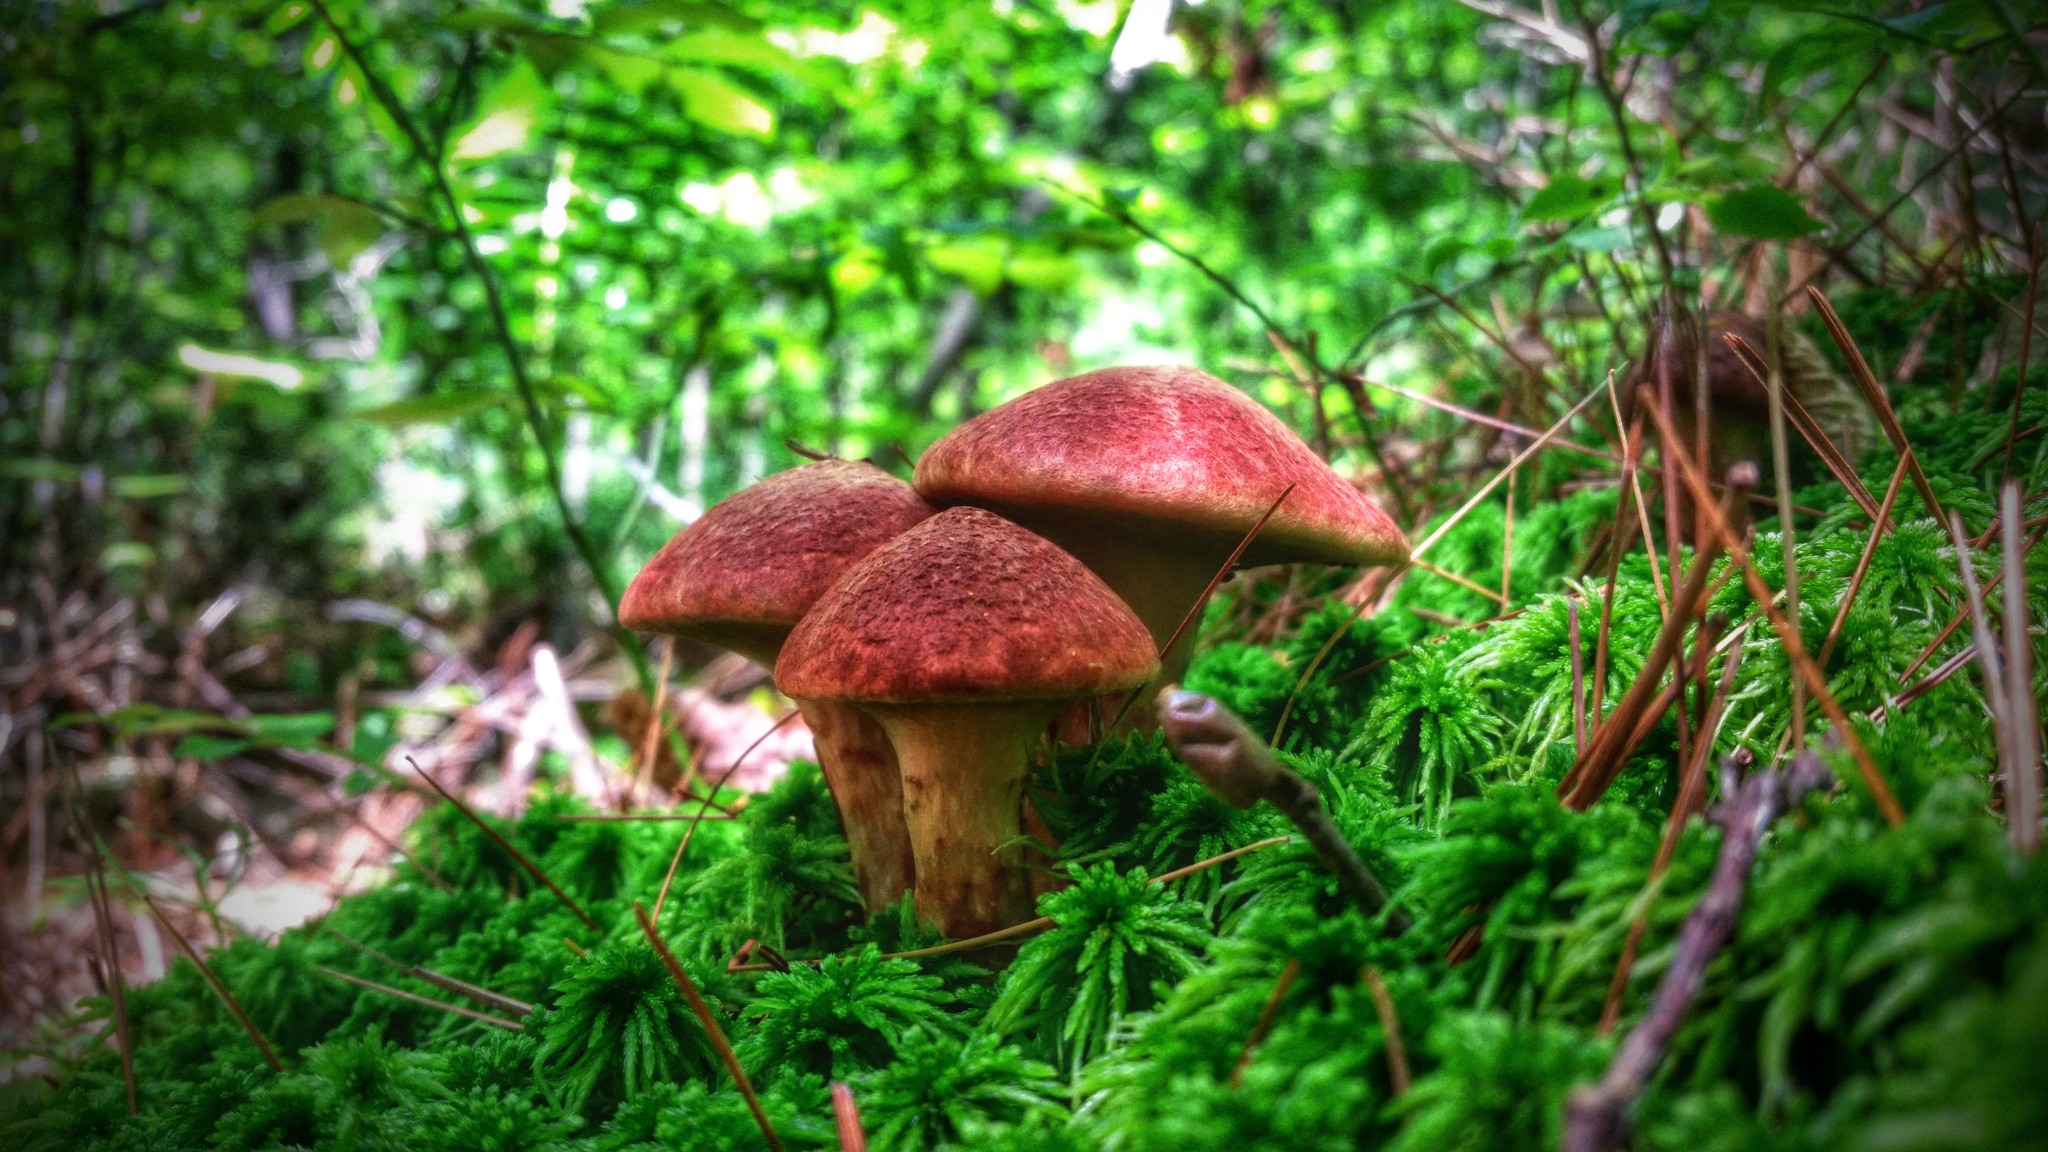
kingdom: Fungi
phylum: Basidiomycota
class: Agaricomycetes
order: Boletales
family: Suillaceae
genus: Suillus
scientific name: Suillus spraguei
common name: Painted suillus
